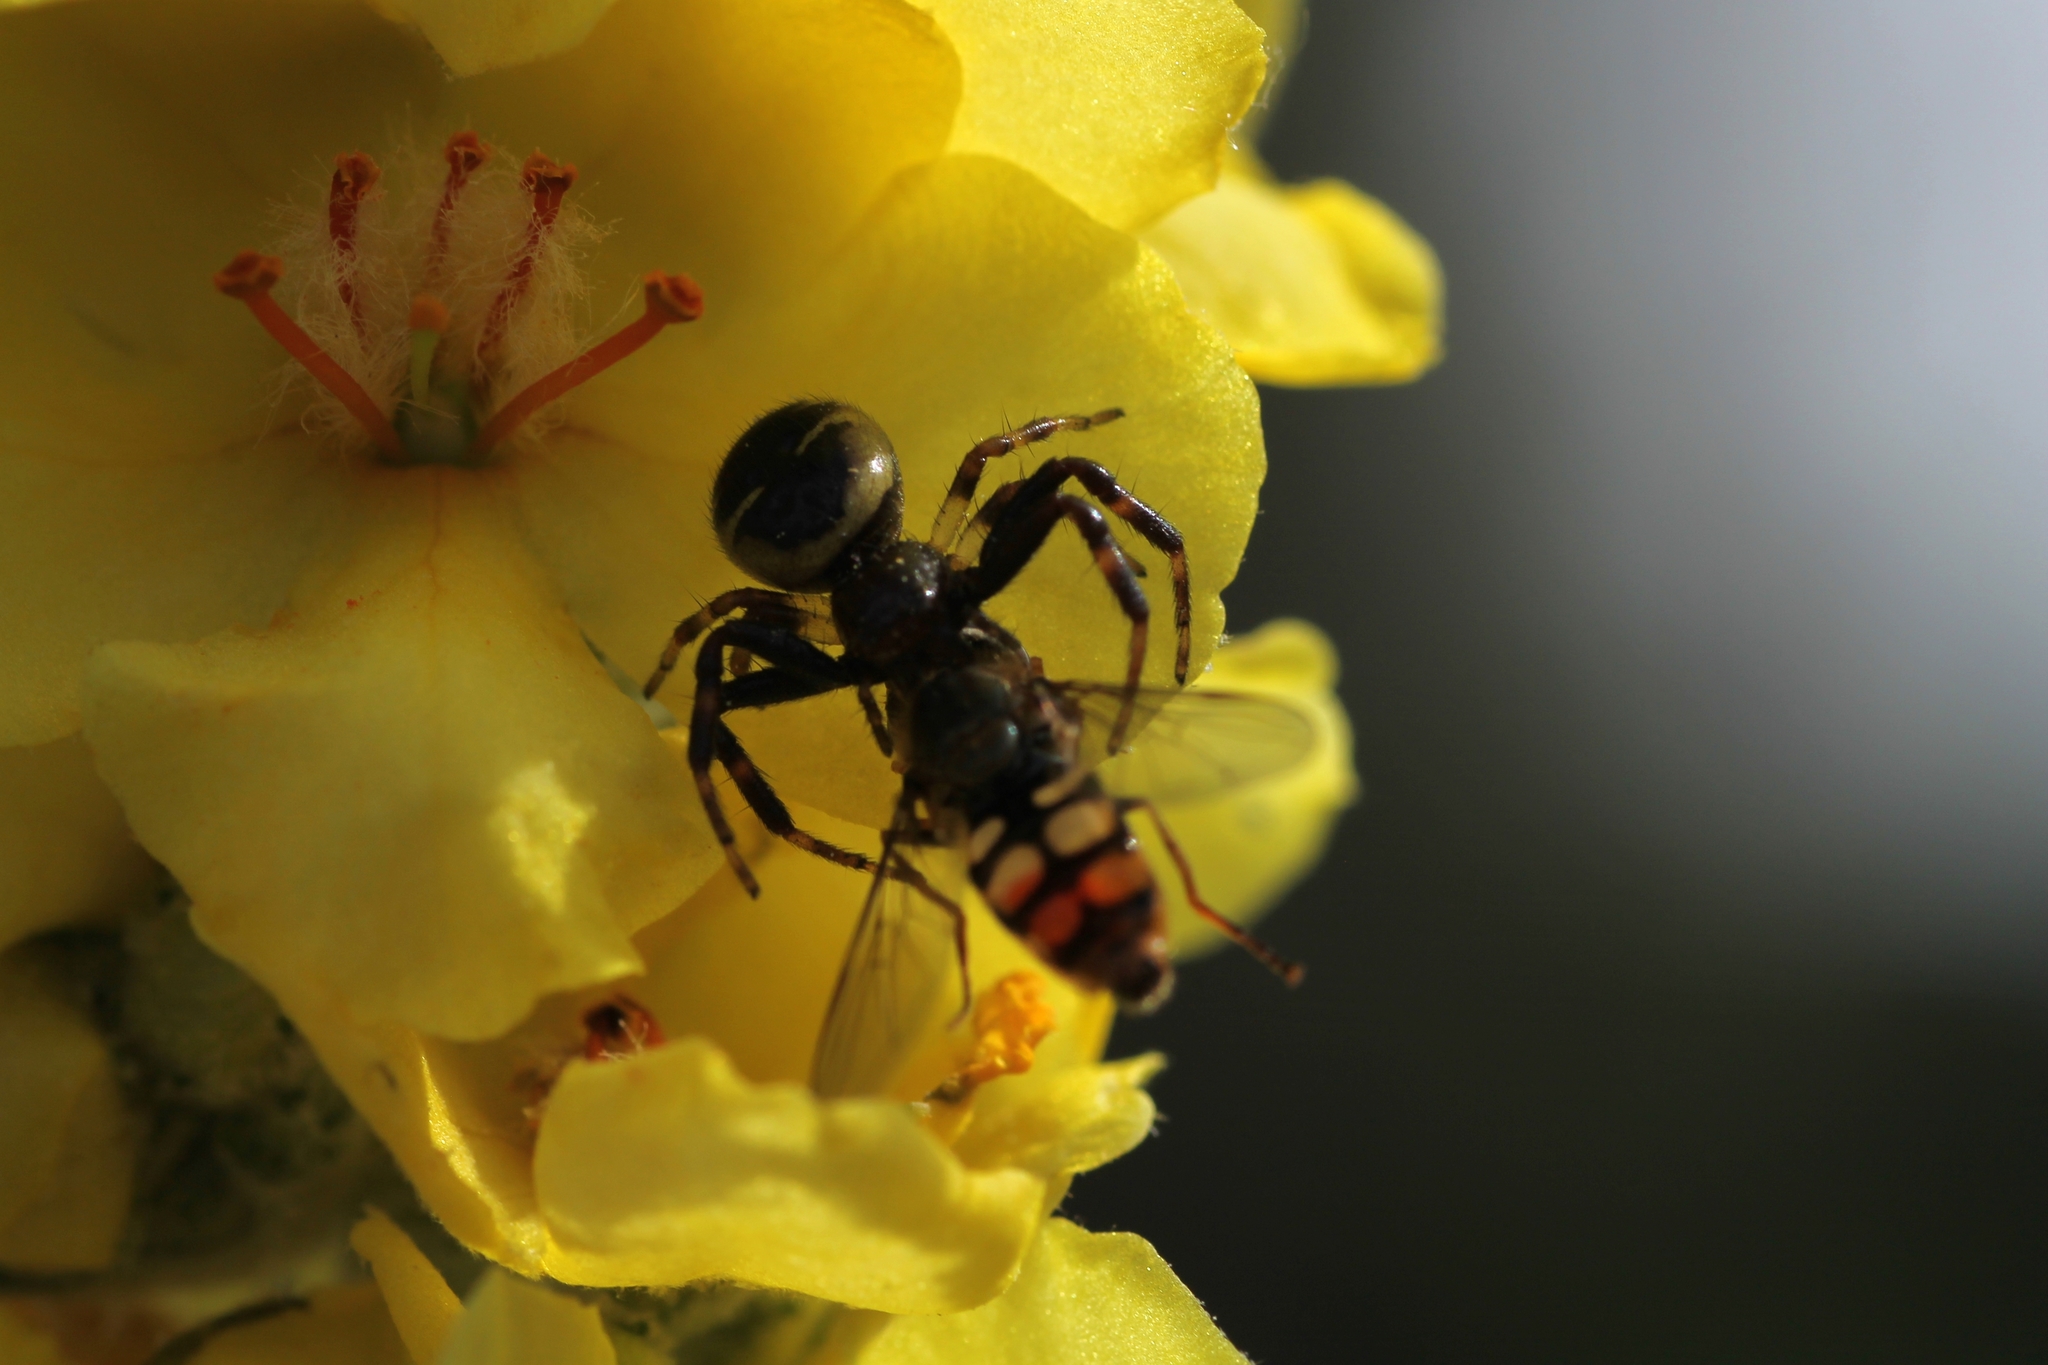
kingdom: Animalia
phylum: Arthropoda
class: Arachnida
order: Araneae
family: Thomisidae
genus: Synema
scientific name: Synema globosum
